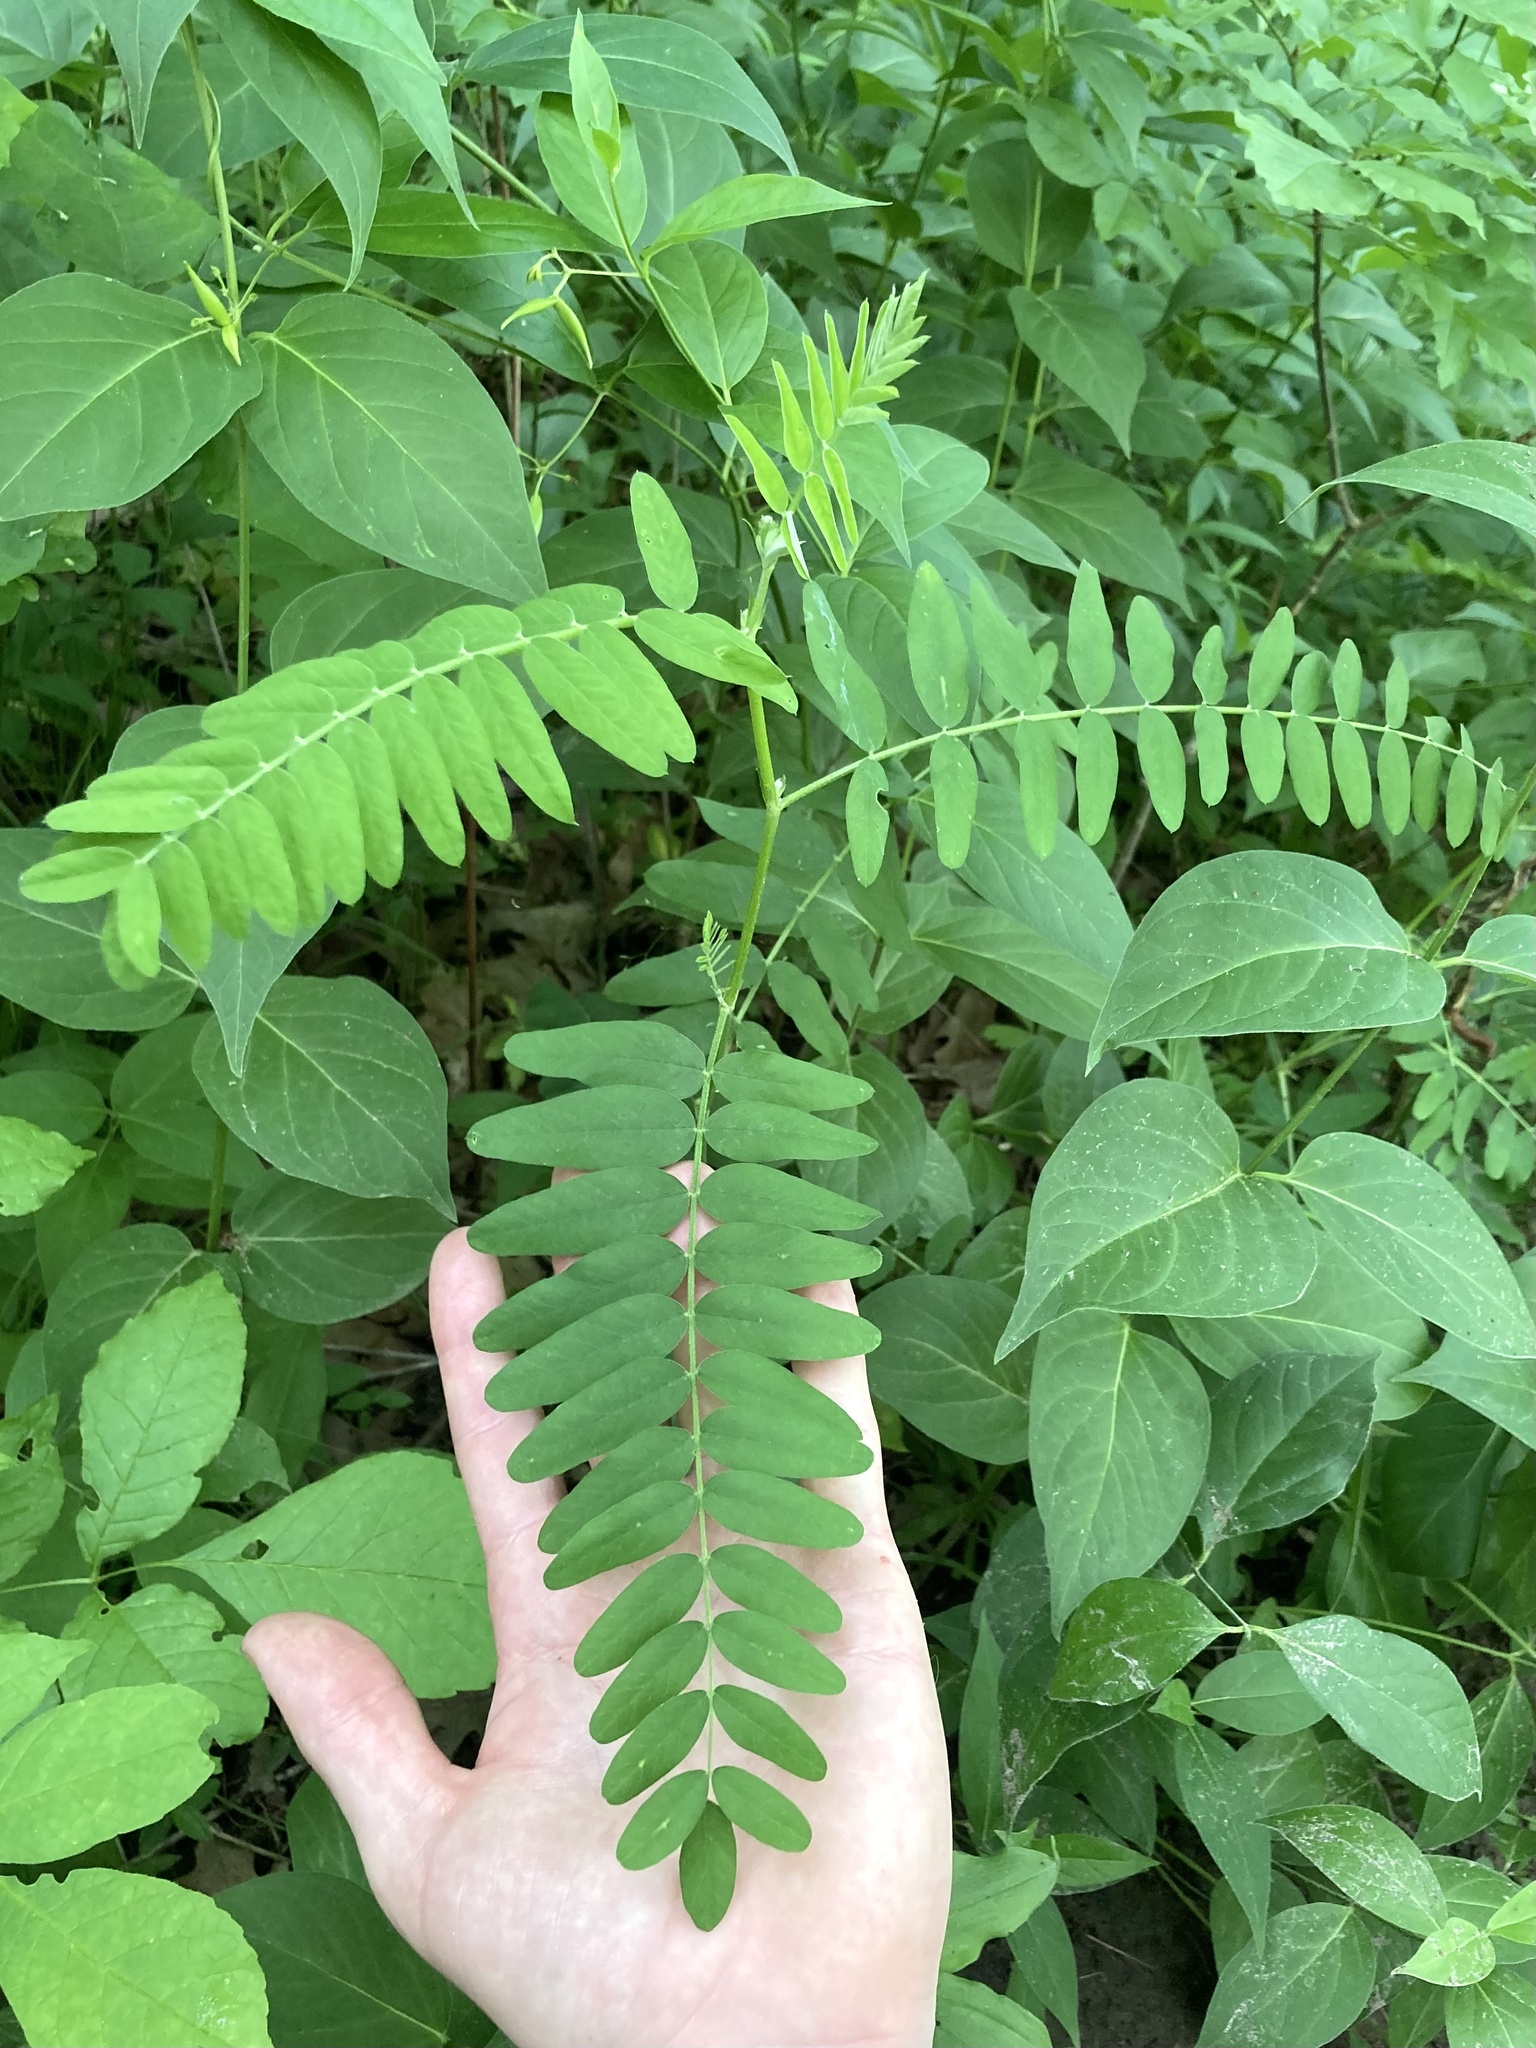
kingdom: Plantae
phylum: Tracheophyta
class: Magnoliopsida
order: Fabales
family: Fabaceae
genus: Astragalus
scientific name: Astragalus canadensis
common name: Canada milk-vetch
